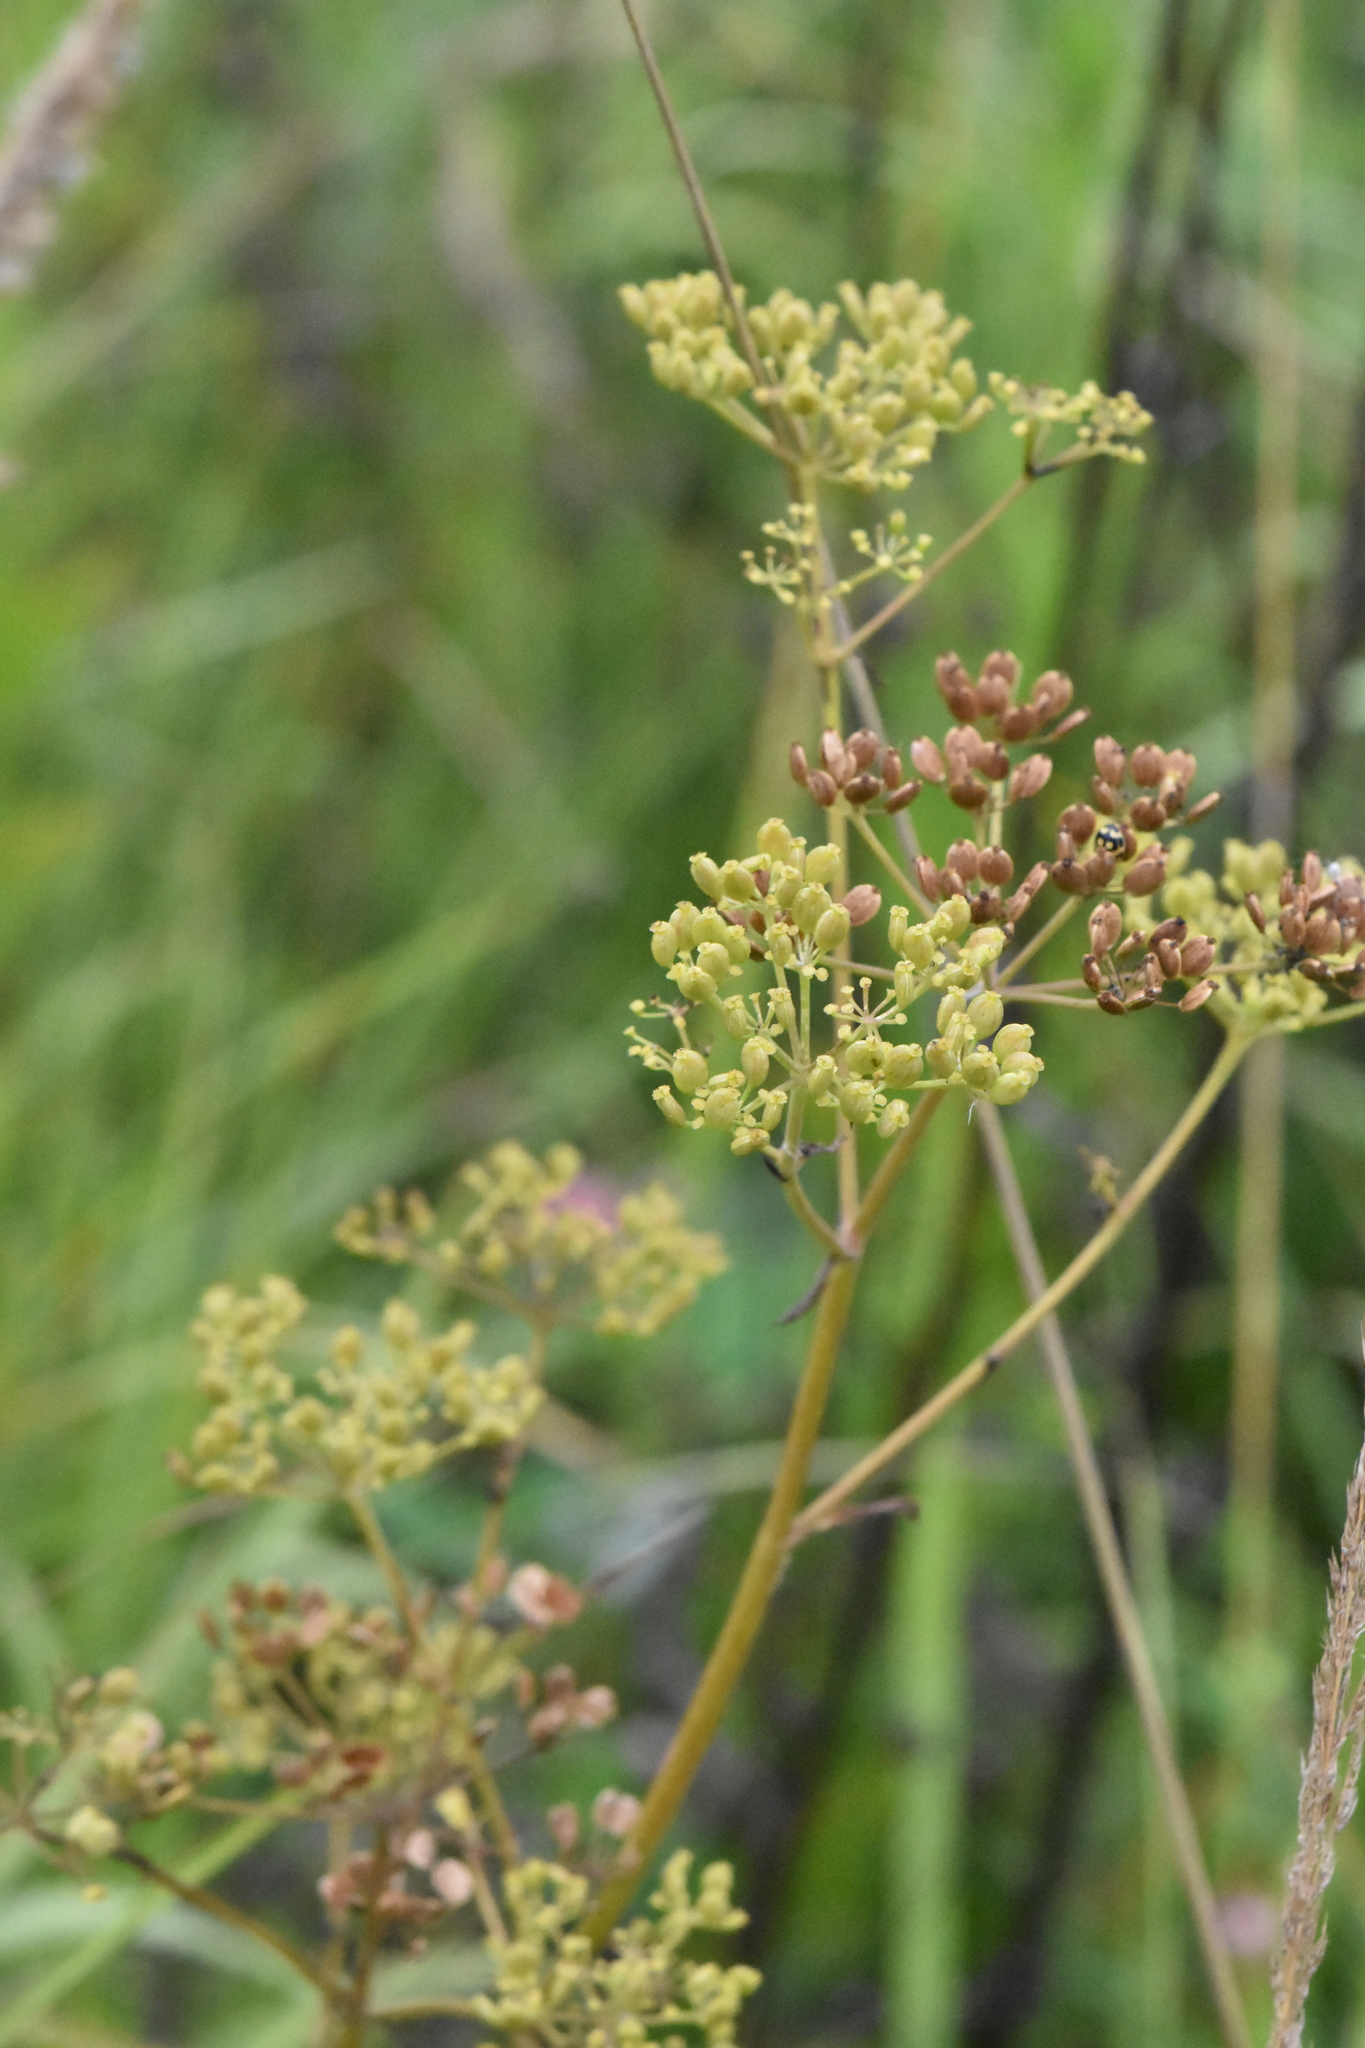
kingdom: Plantae
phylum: Tracheophyta
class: Magnoliopsida
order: Apiales
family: Apiaceae
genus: Pastinaca
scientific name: Pastinaca sativa
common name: Wild parsnip
